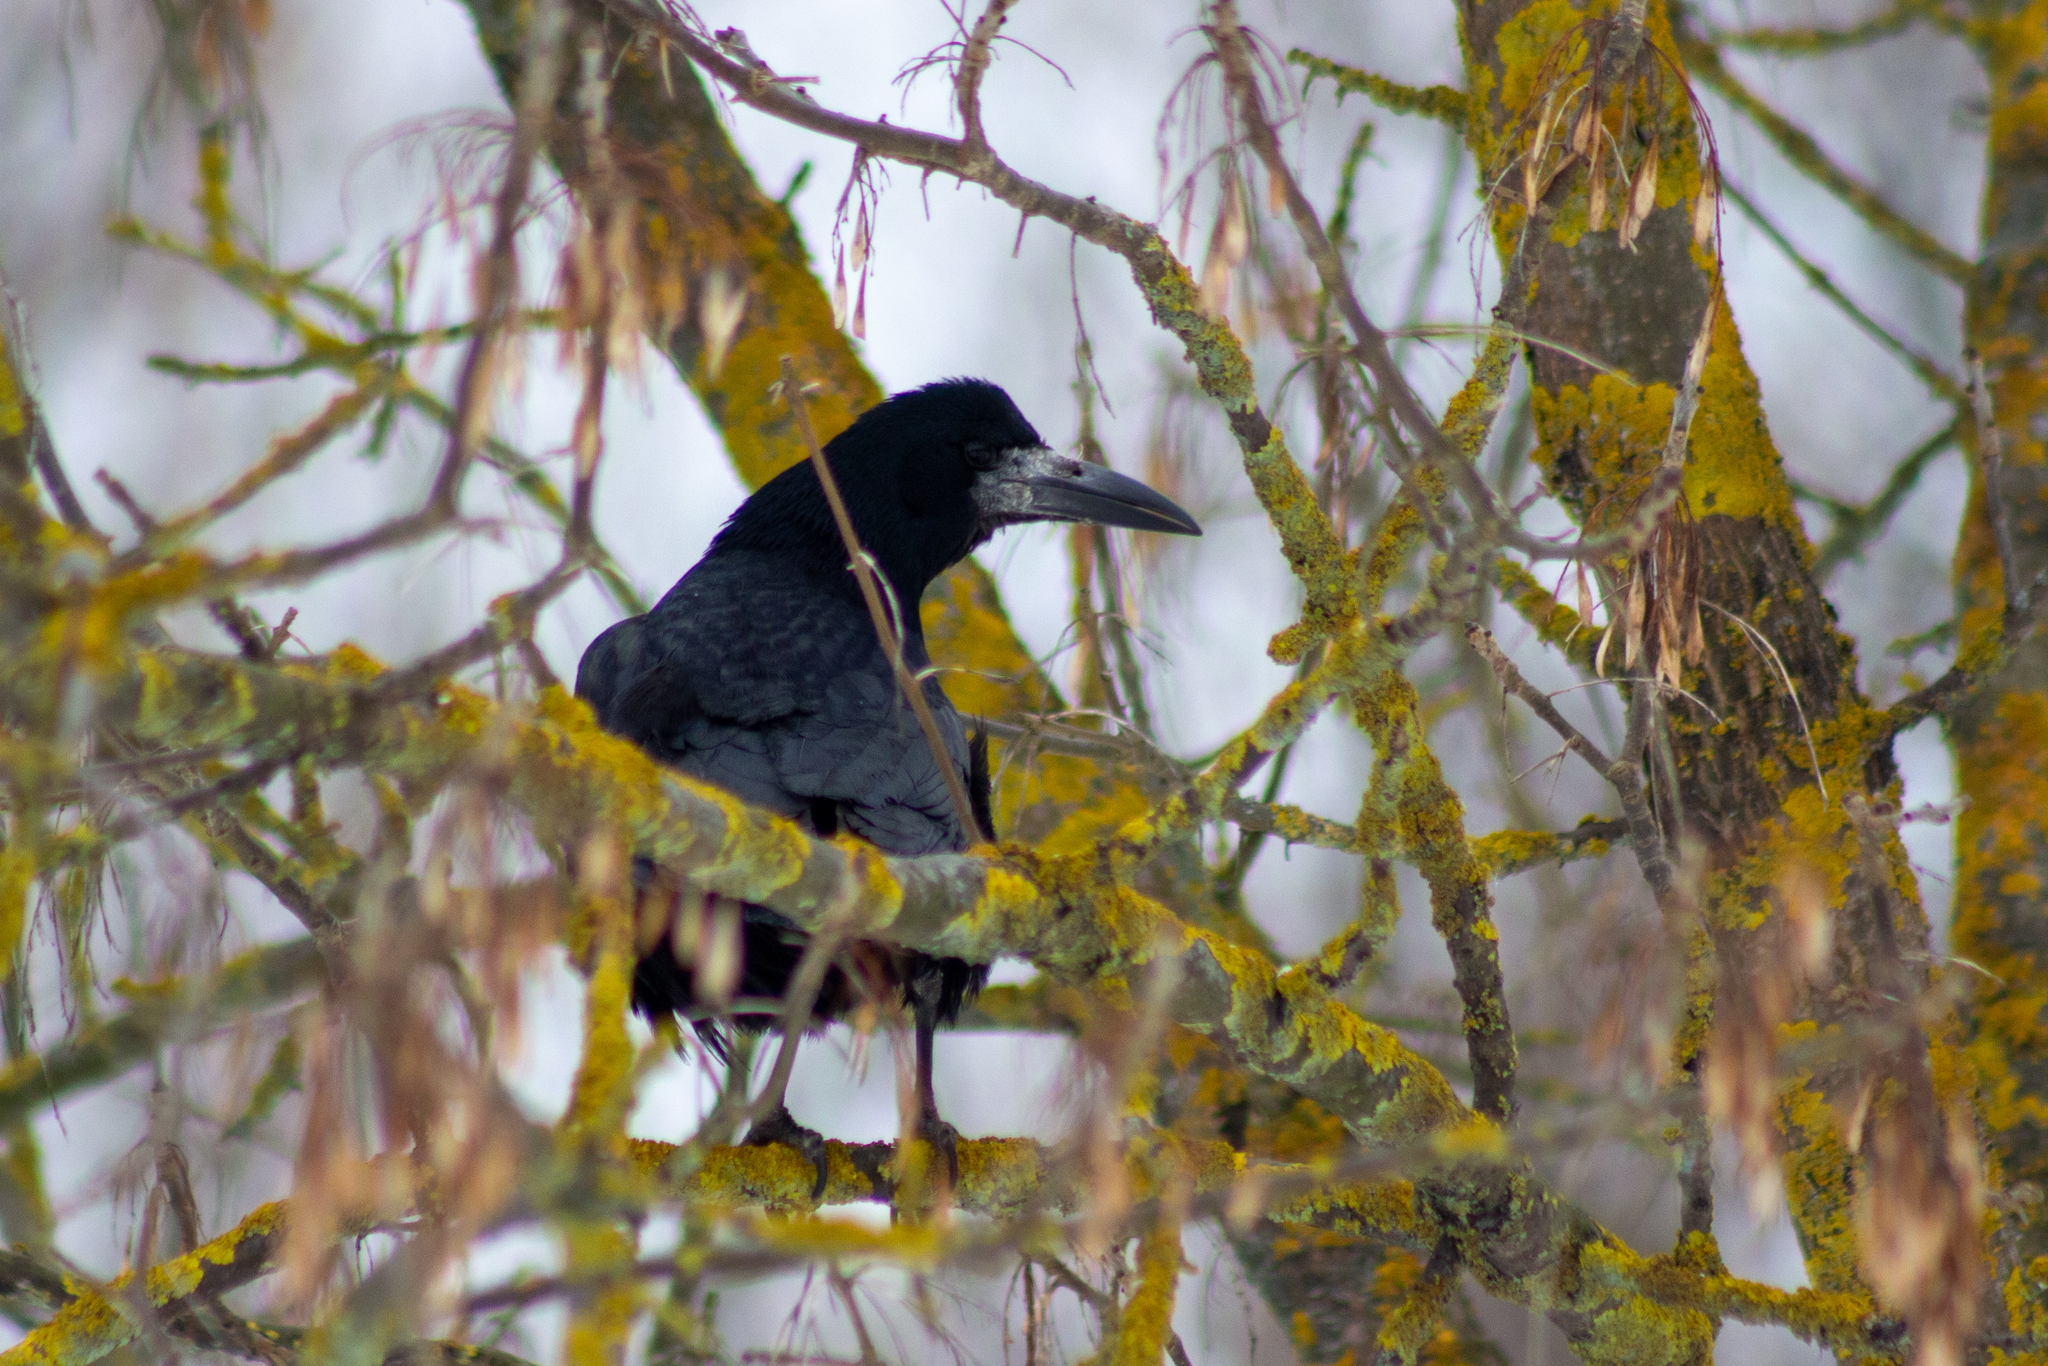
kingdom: Animalia
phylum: Chordata
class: Aves
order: Passeriformes
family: Corvidae
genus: Corvus
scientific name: Corvus frugilegus
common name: Rook
